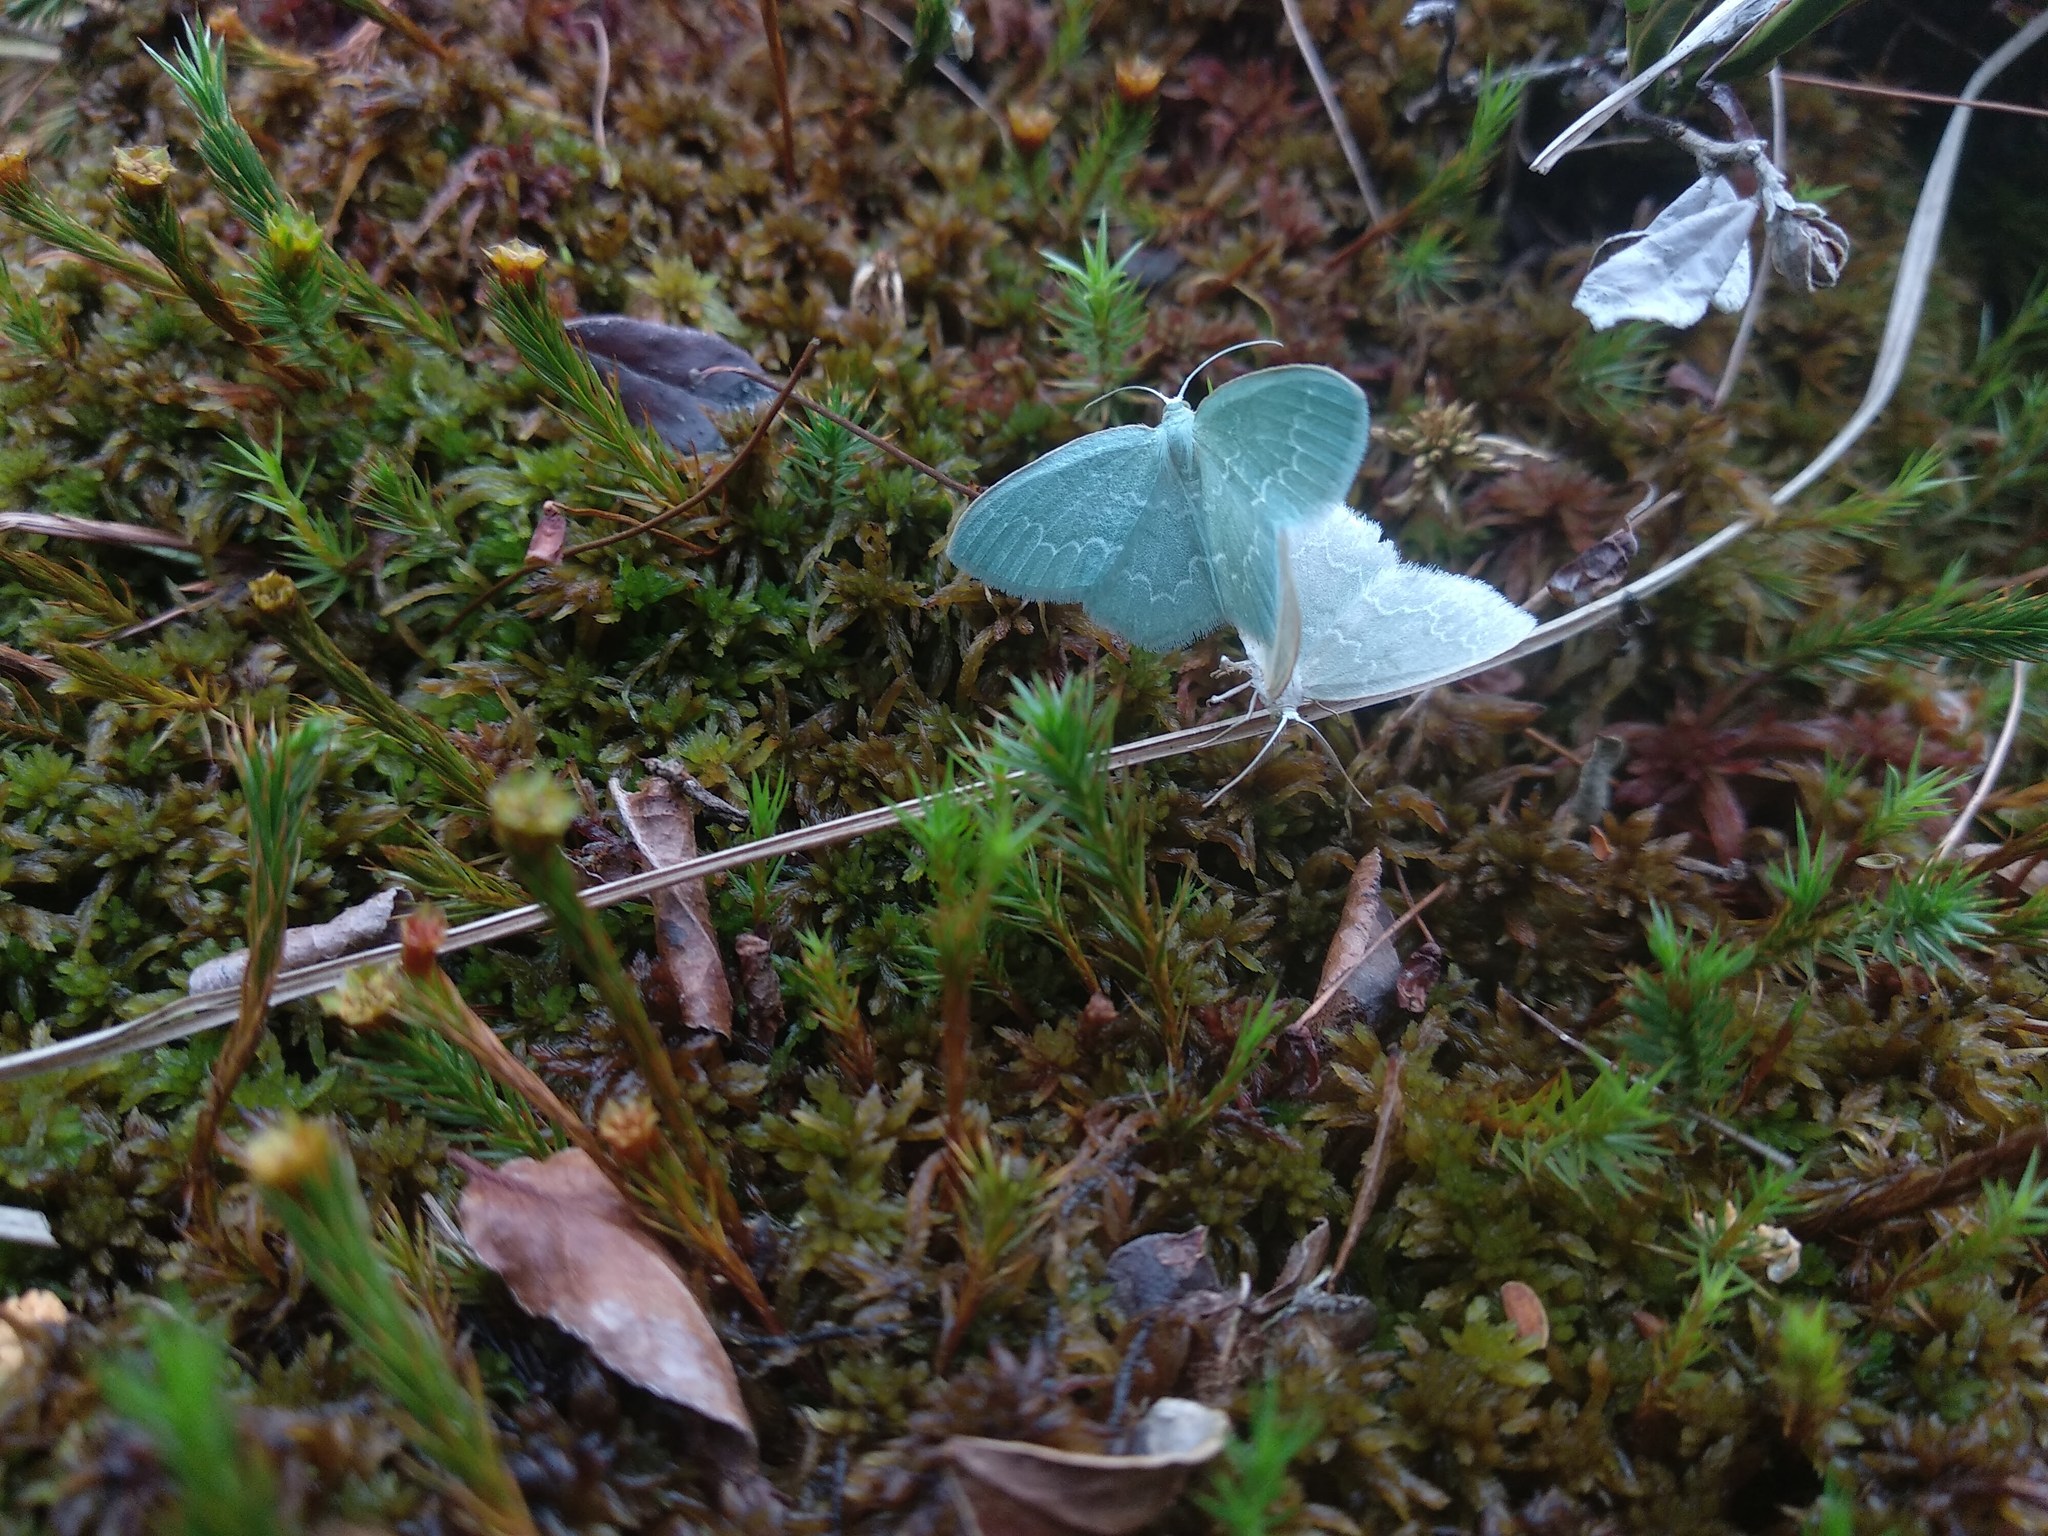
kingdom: Animalia
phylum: Arthropoda
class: Insecta
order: Lepidoptera
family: Geometridae
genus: Jodis
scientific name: Jodis putata
